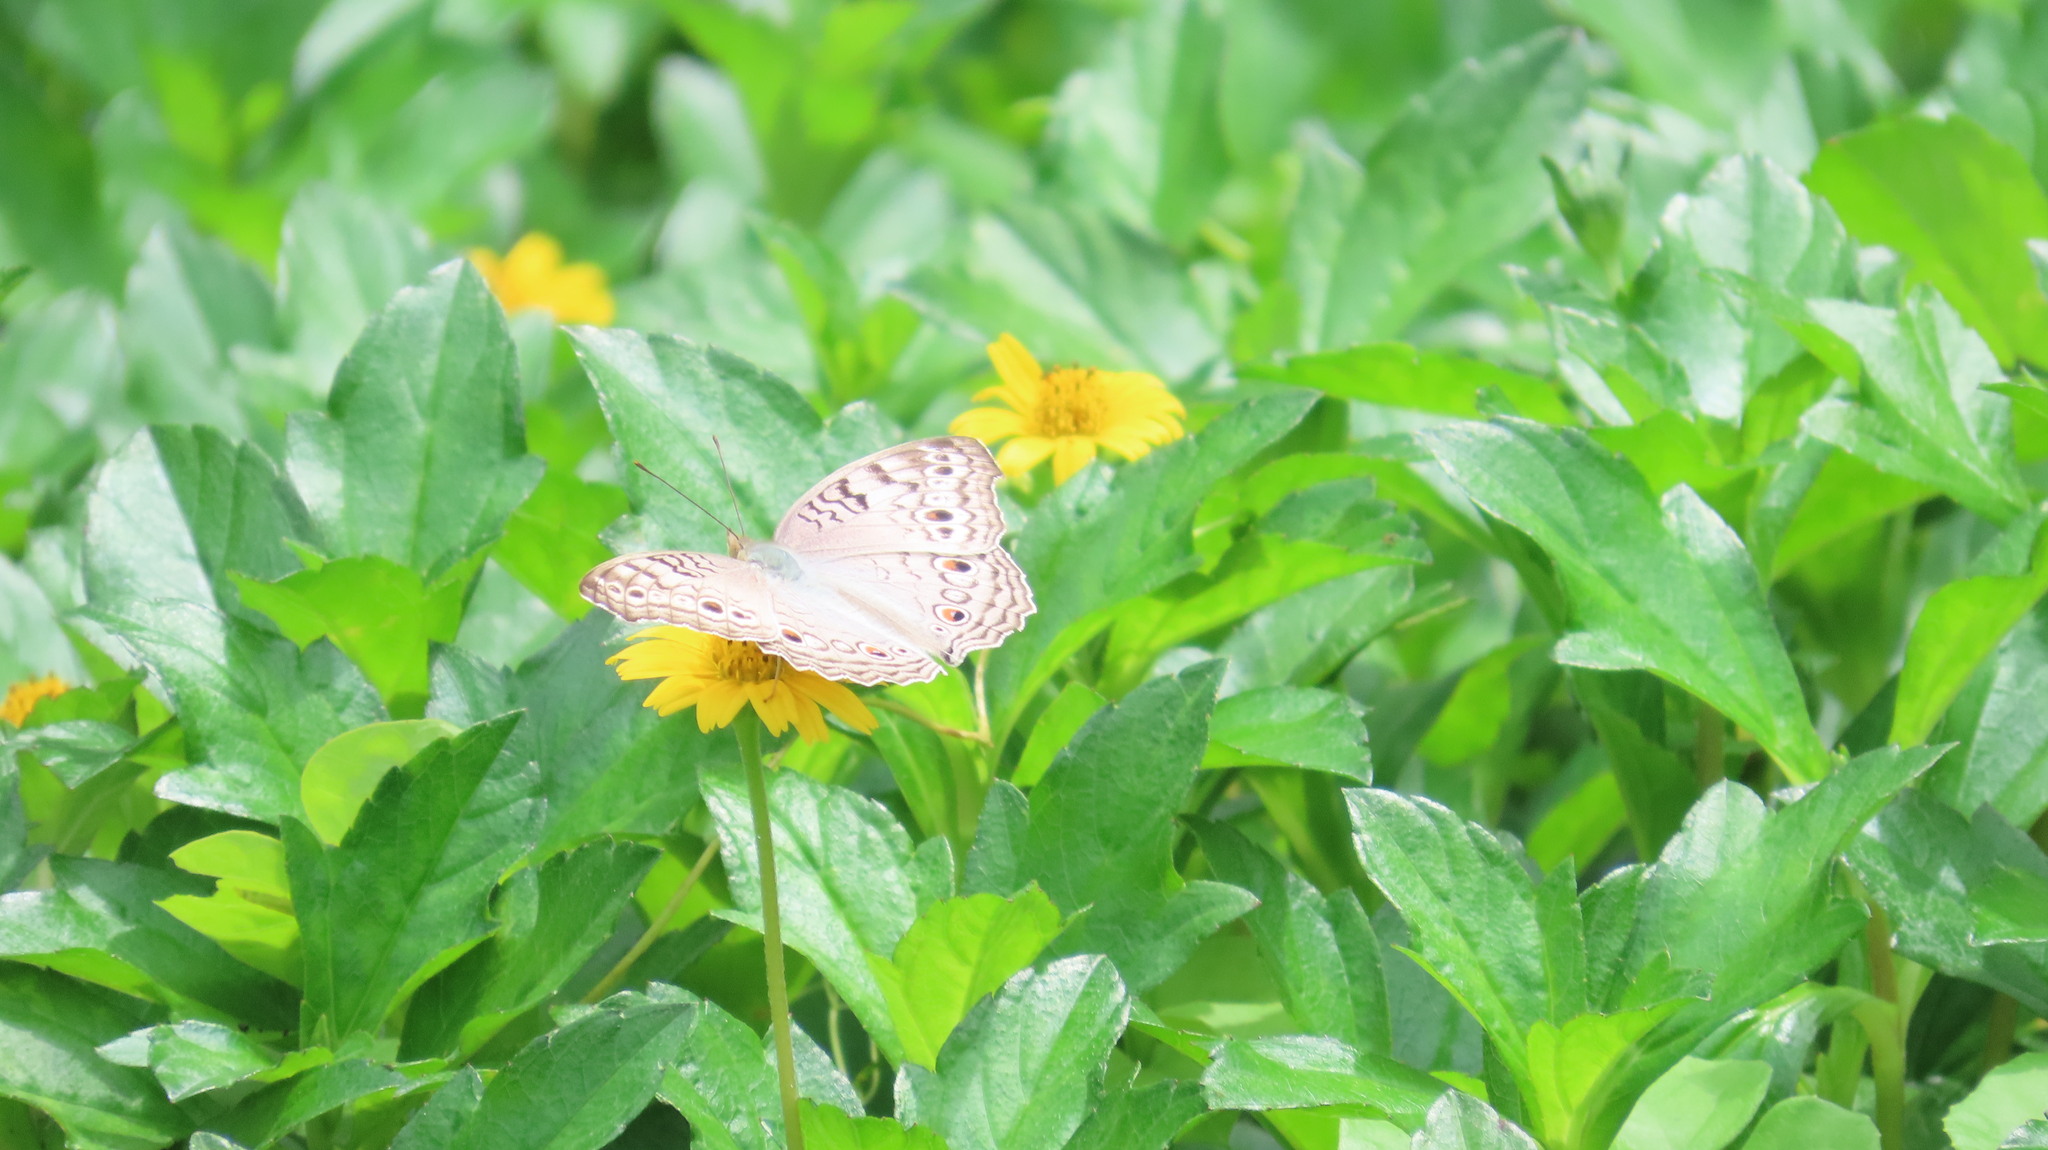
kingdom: Animalia
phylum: Arthropoda
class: Insecta
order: Lepidoptera
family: Nymphalidae
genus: Junonia
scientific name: Junonia atlites
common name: Grey pansy
